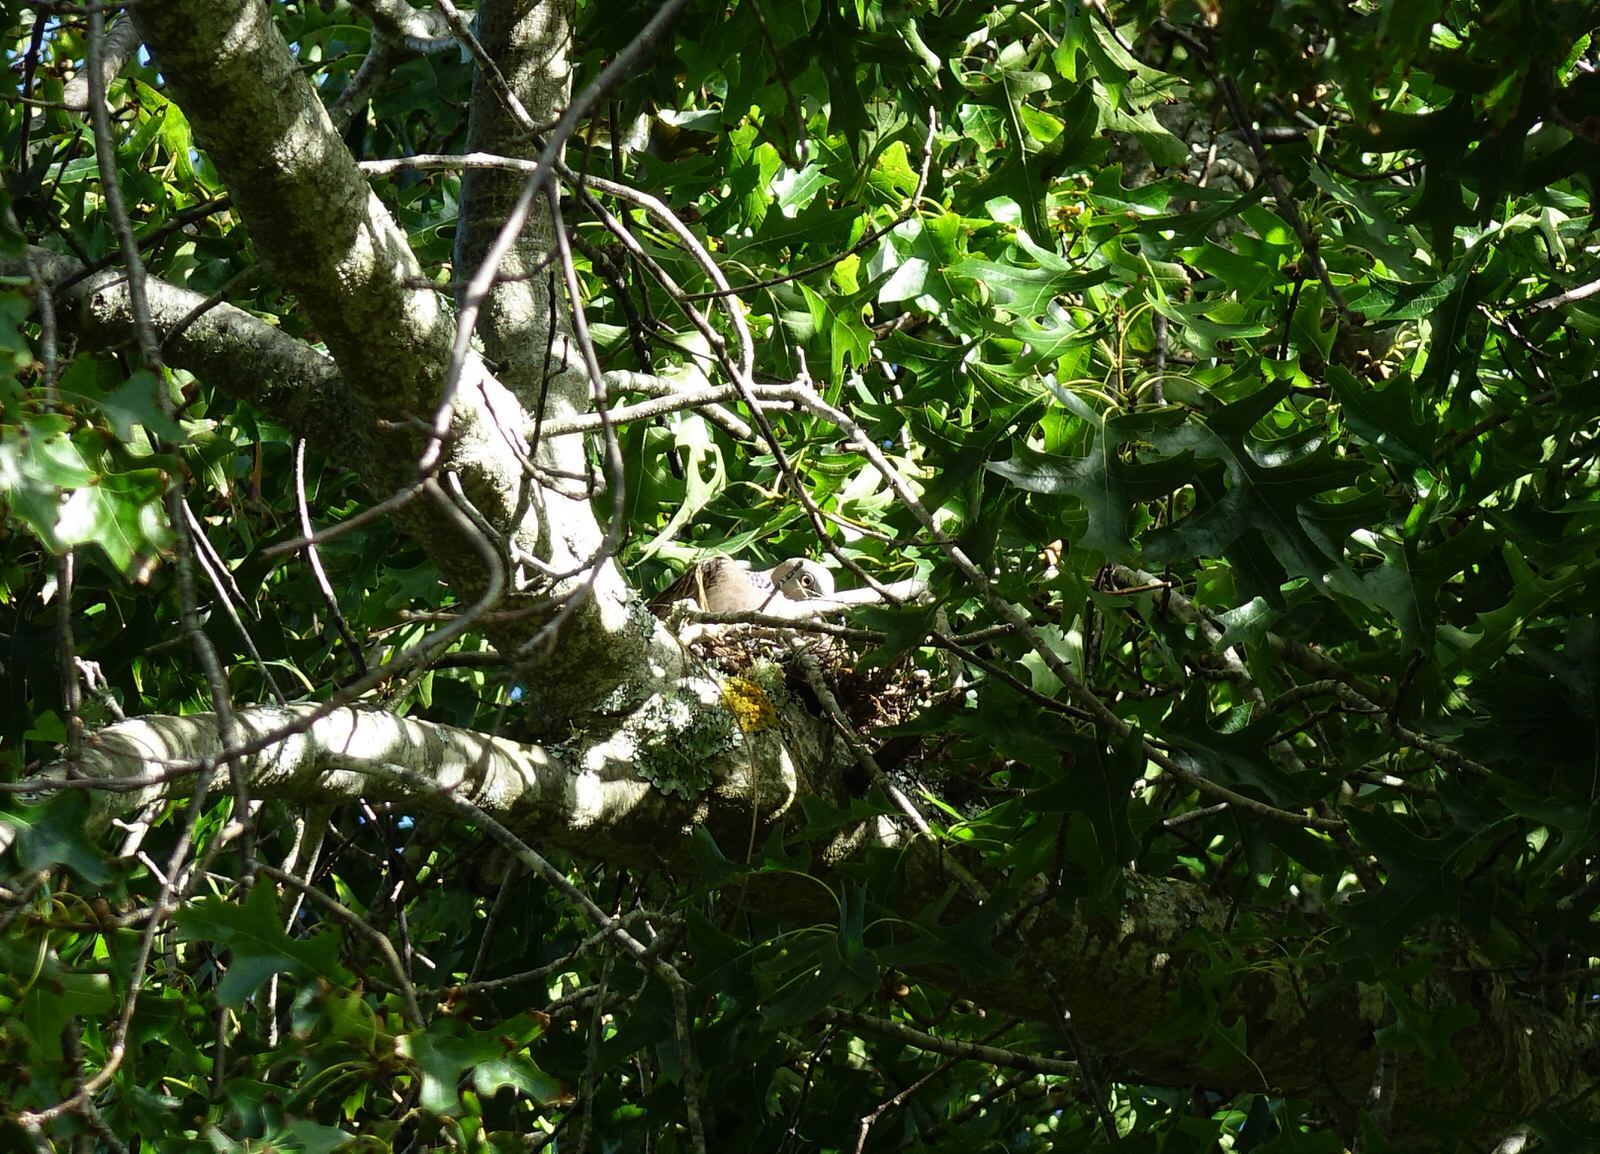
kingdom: Animalia
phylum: Chordata
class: Aves
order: Columbiformes
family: Columbidae
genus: Spilopelia
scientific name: Spilopelia chinensis
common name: Spotted dove
